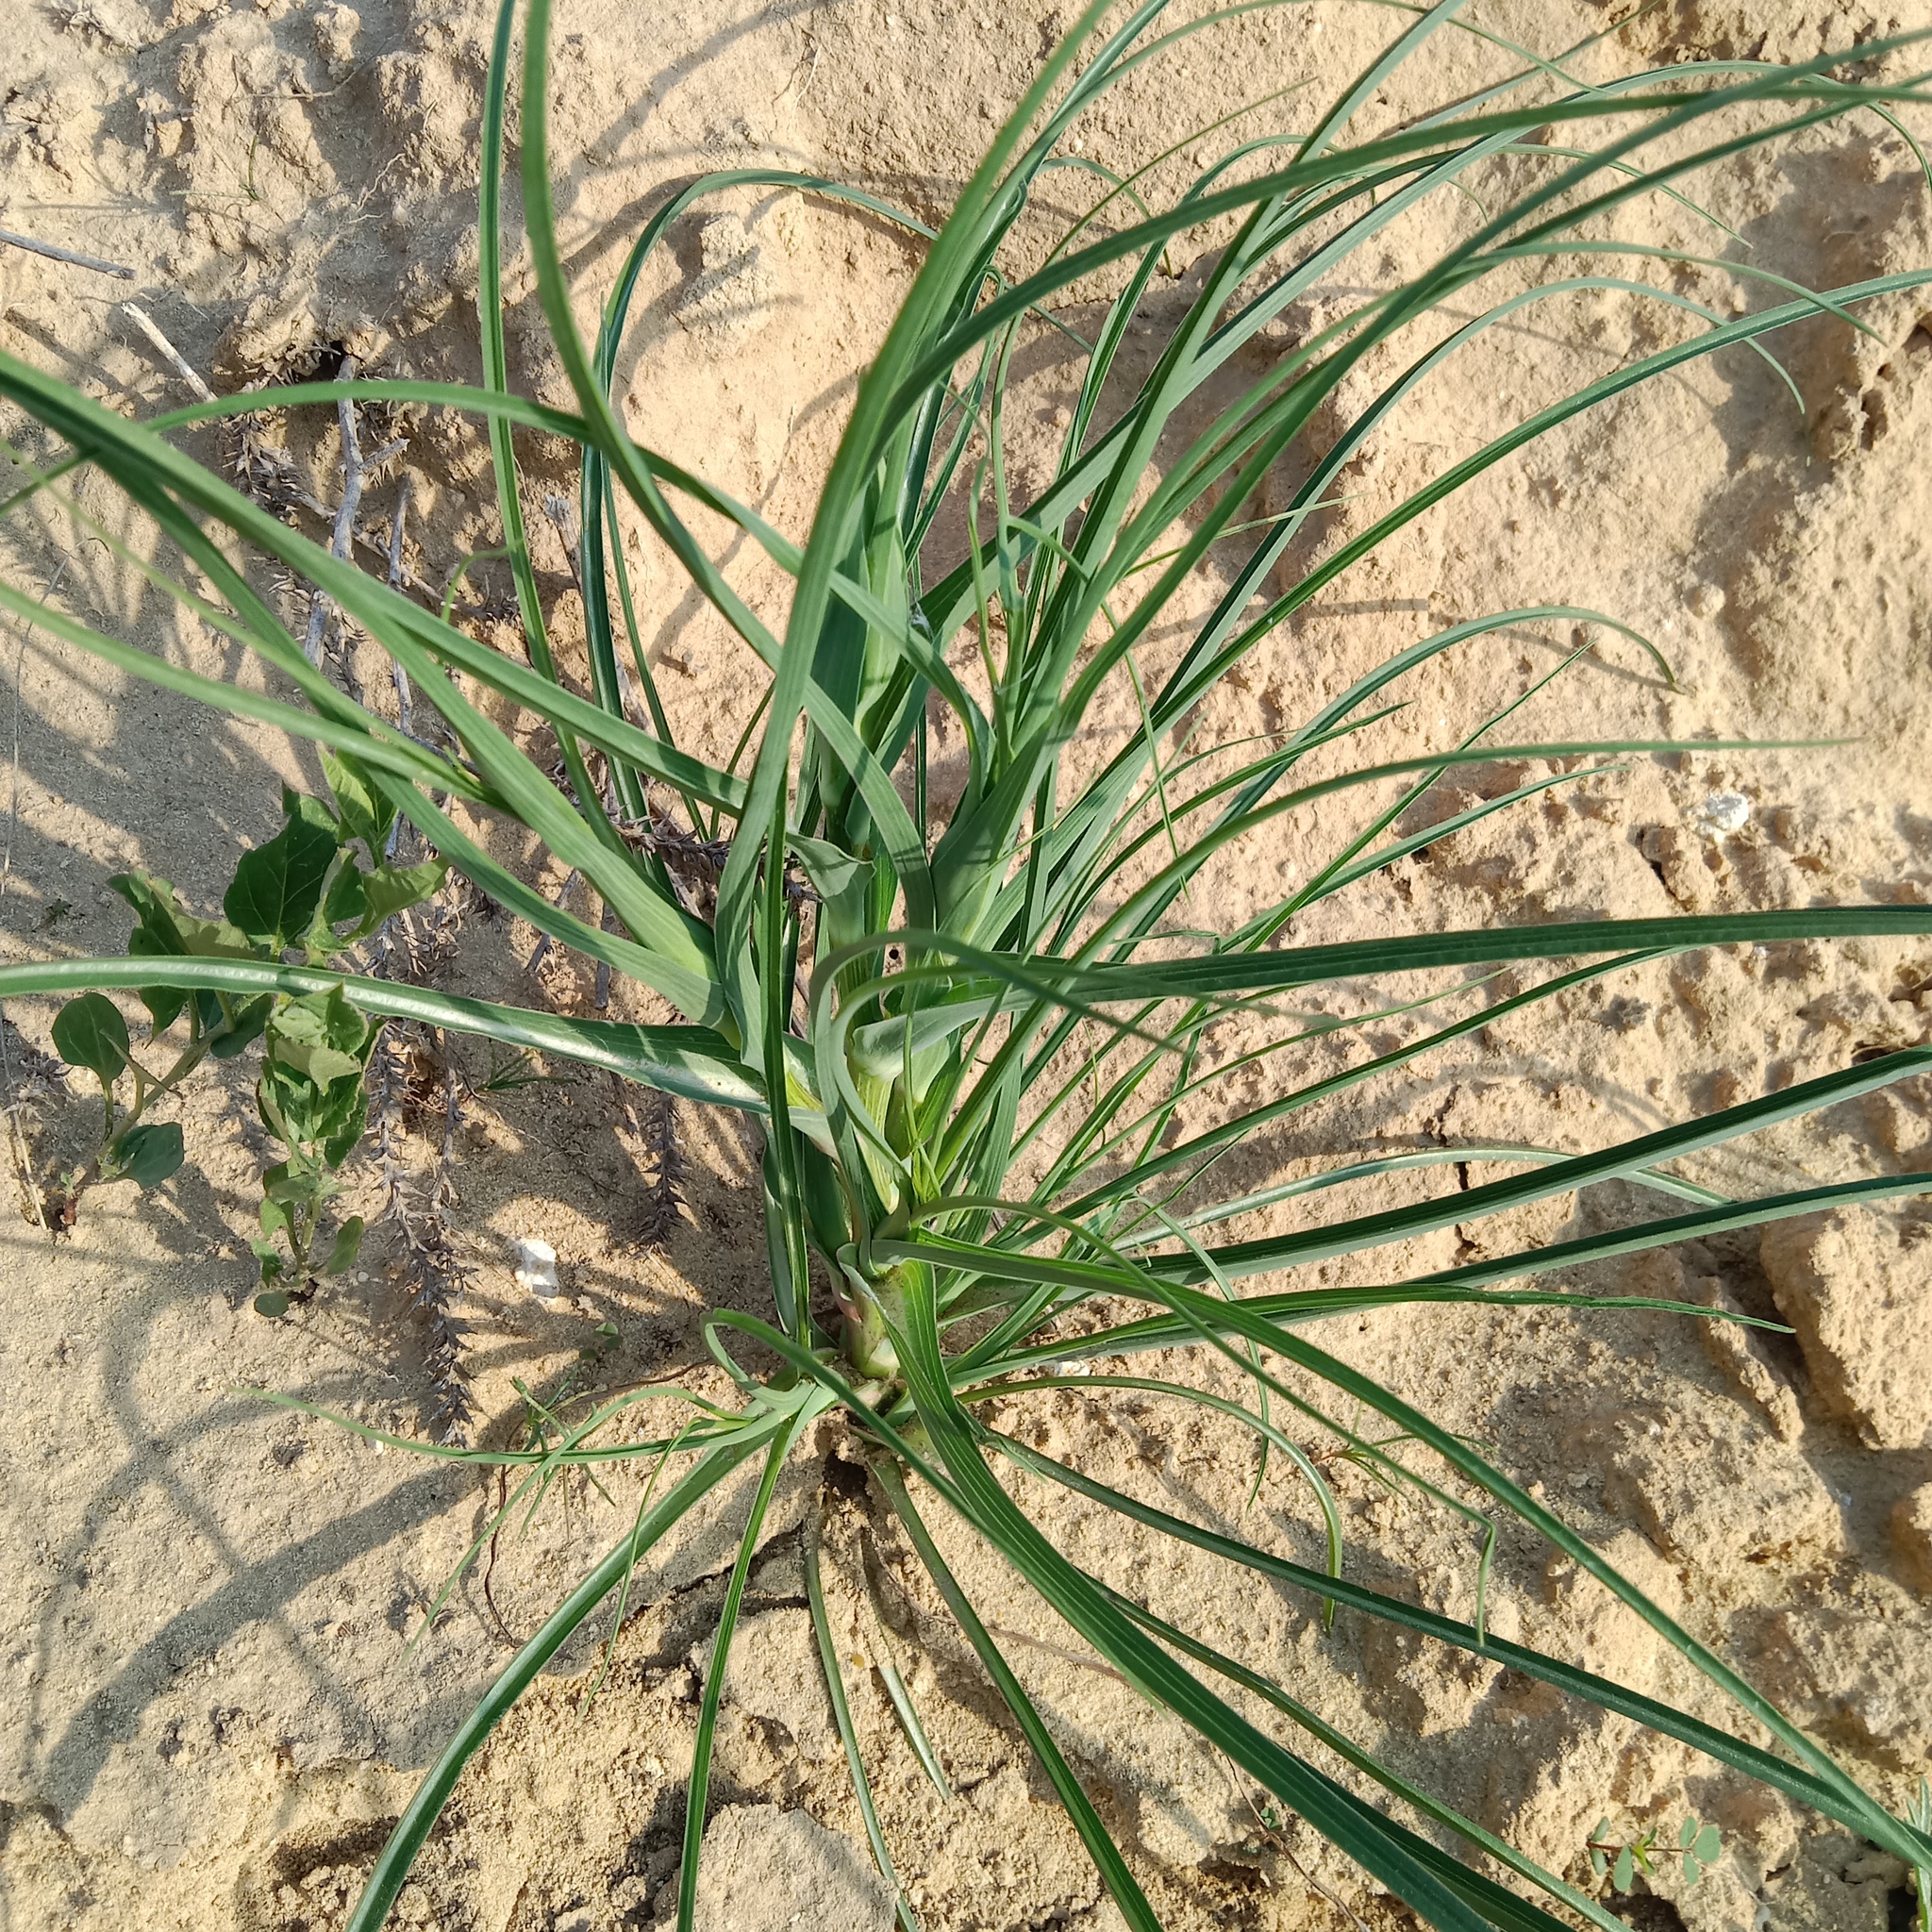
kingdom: Plantae
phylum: Tracheophyta
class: Magnoliopsida
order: Asterales
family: Asteraceae
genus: Tragopogon
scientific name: Tragopogon dubius
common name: Yellow salsify
